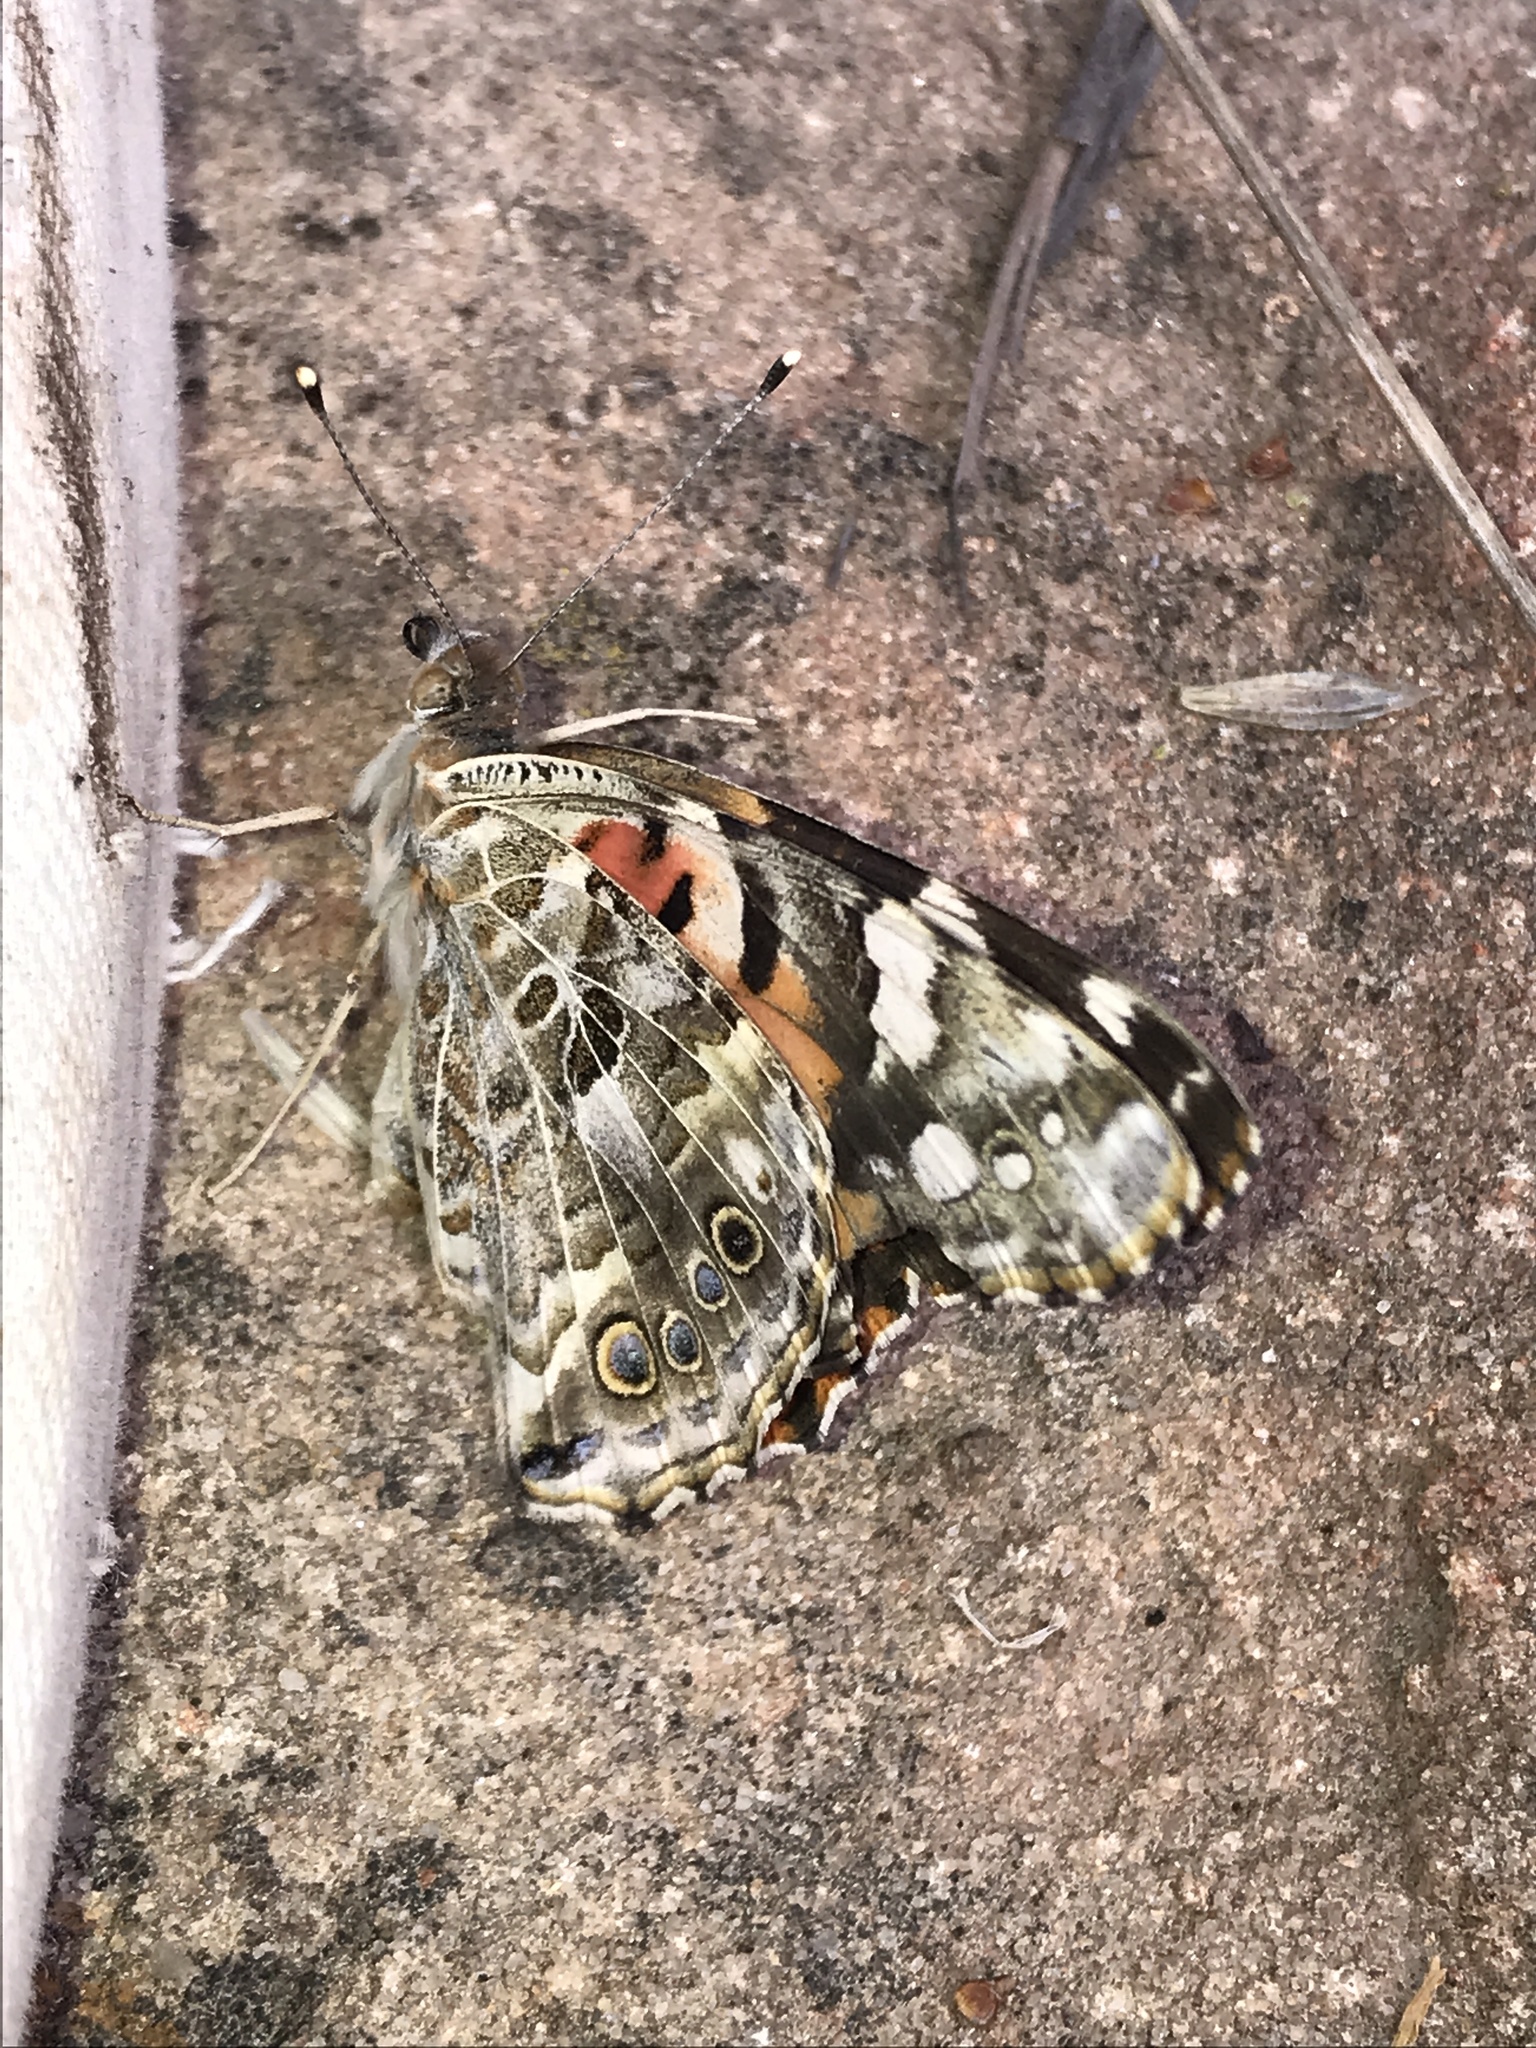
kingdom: Animalia
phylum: Arthropoda
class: Insecta
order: Lepidoptera
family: Nymphalidae
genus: Vanessa
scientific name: Vanessa cardui
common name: Painted lady
